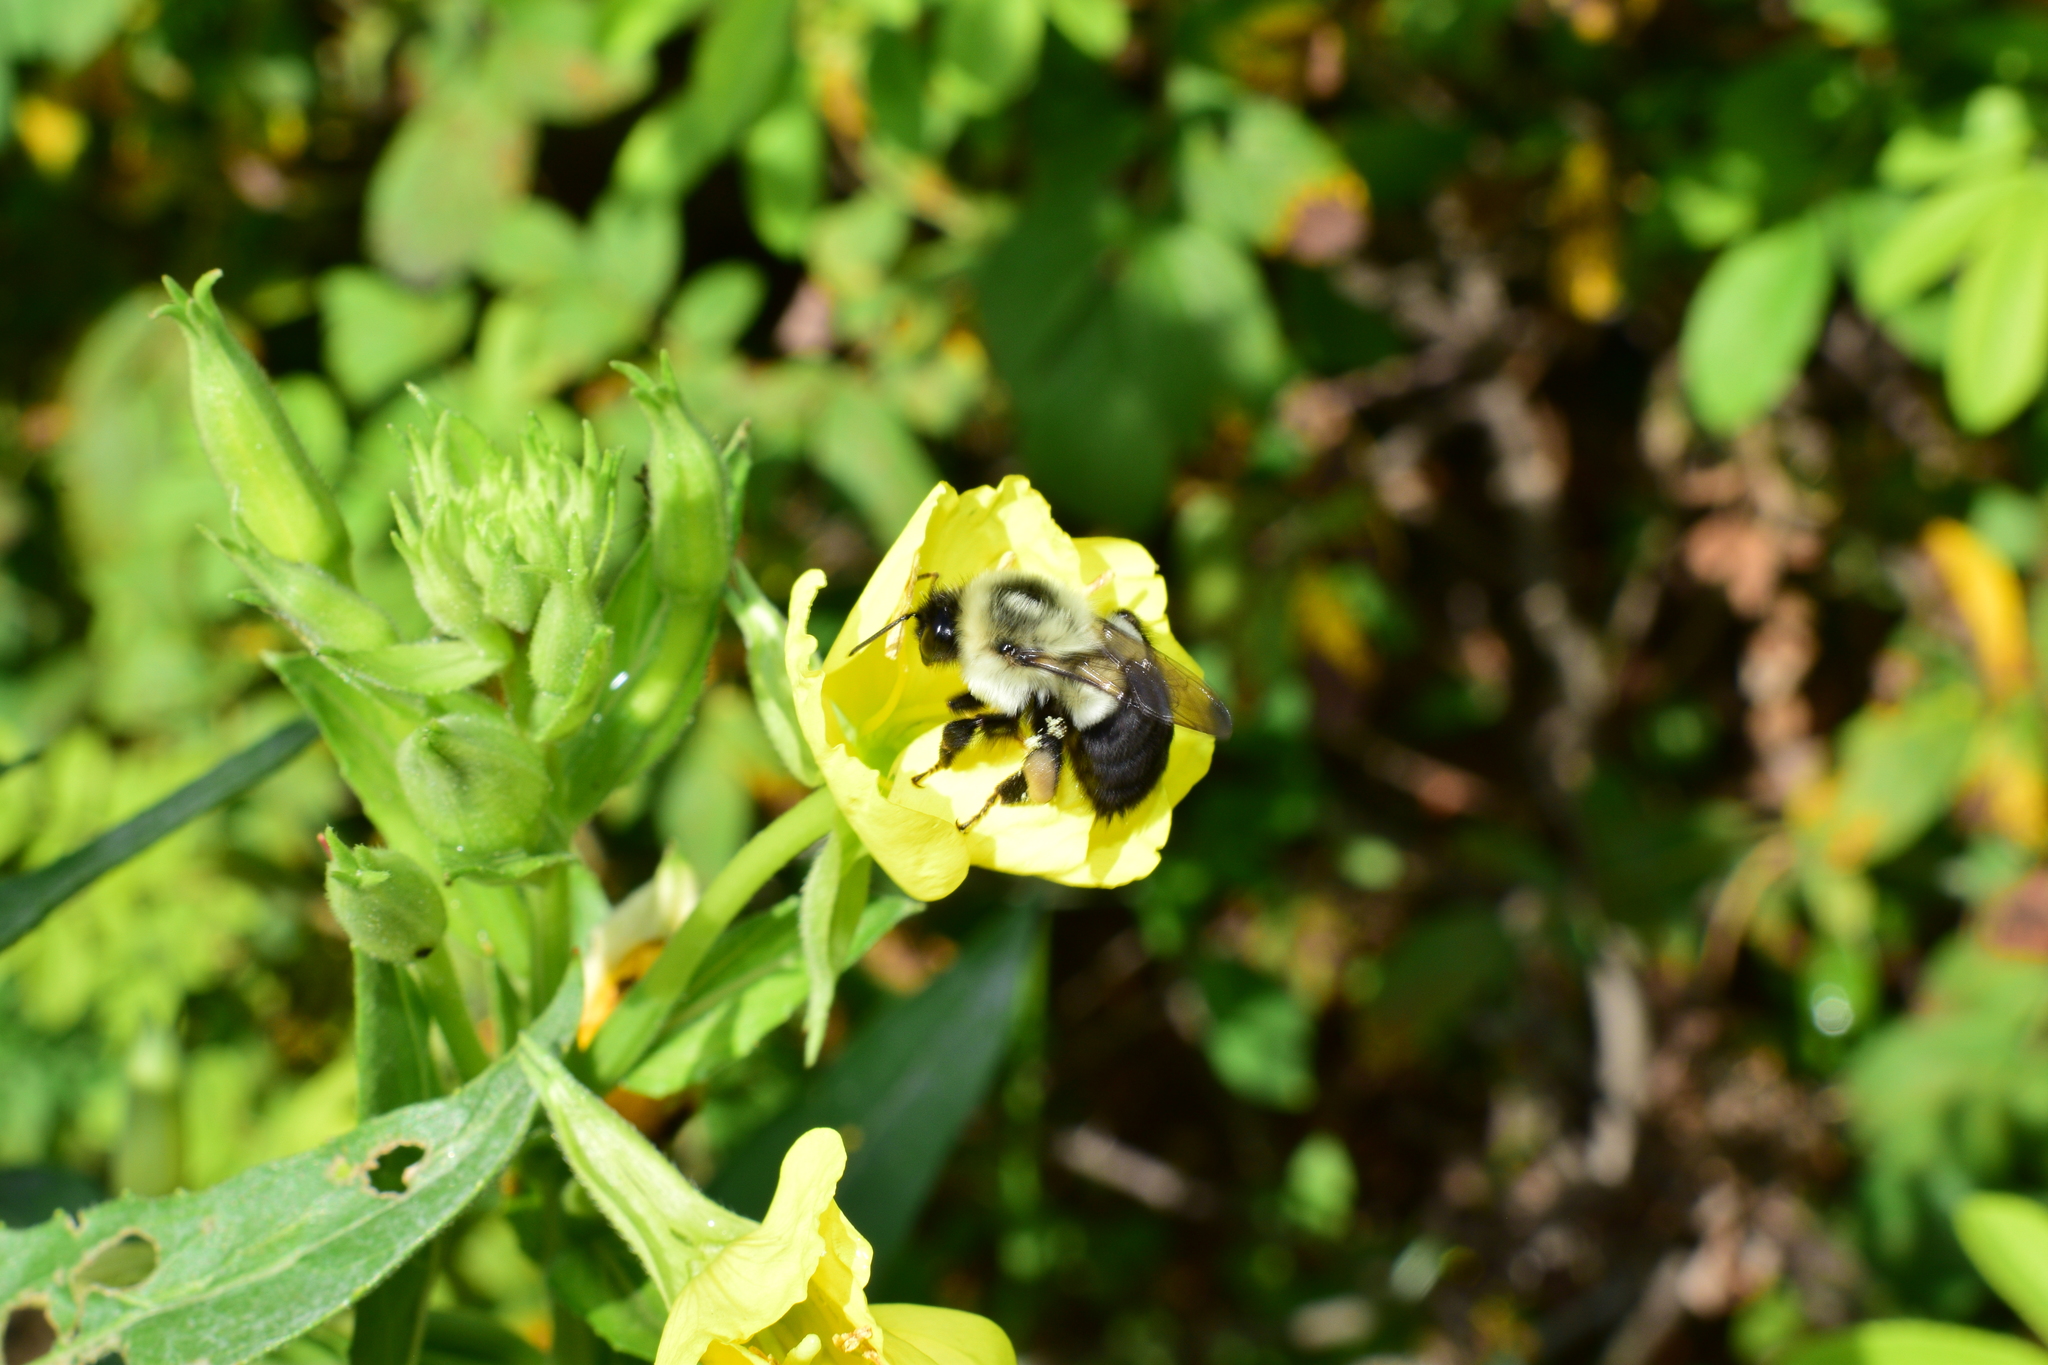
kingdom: Animalia
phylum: Arthropoda
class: Insecta
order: Hymenoptera
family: Apidae
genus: Bombus
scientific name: Bombus impatiens
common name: Common eastern bumble bee
